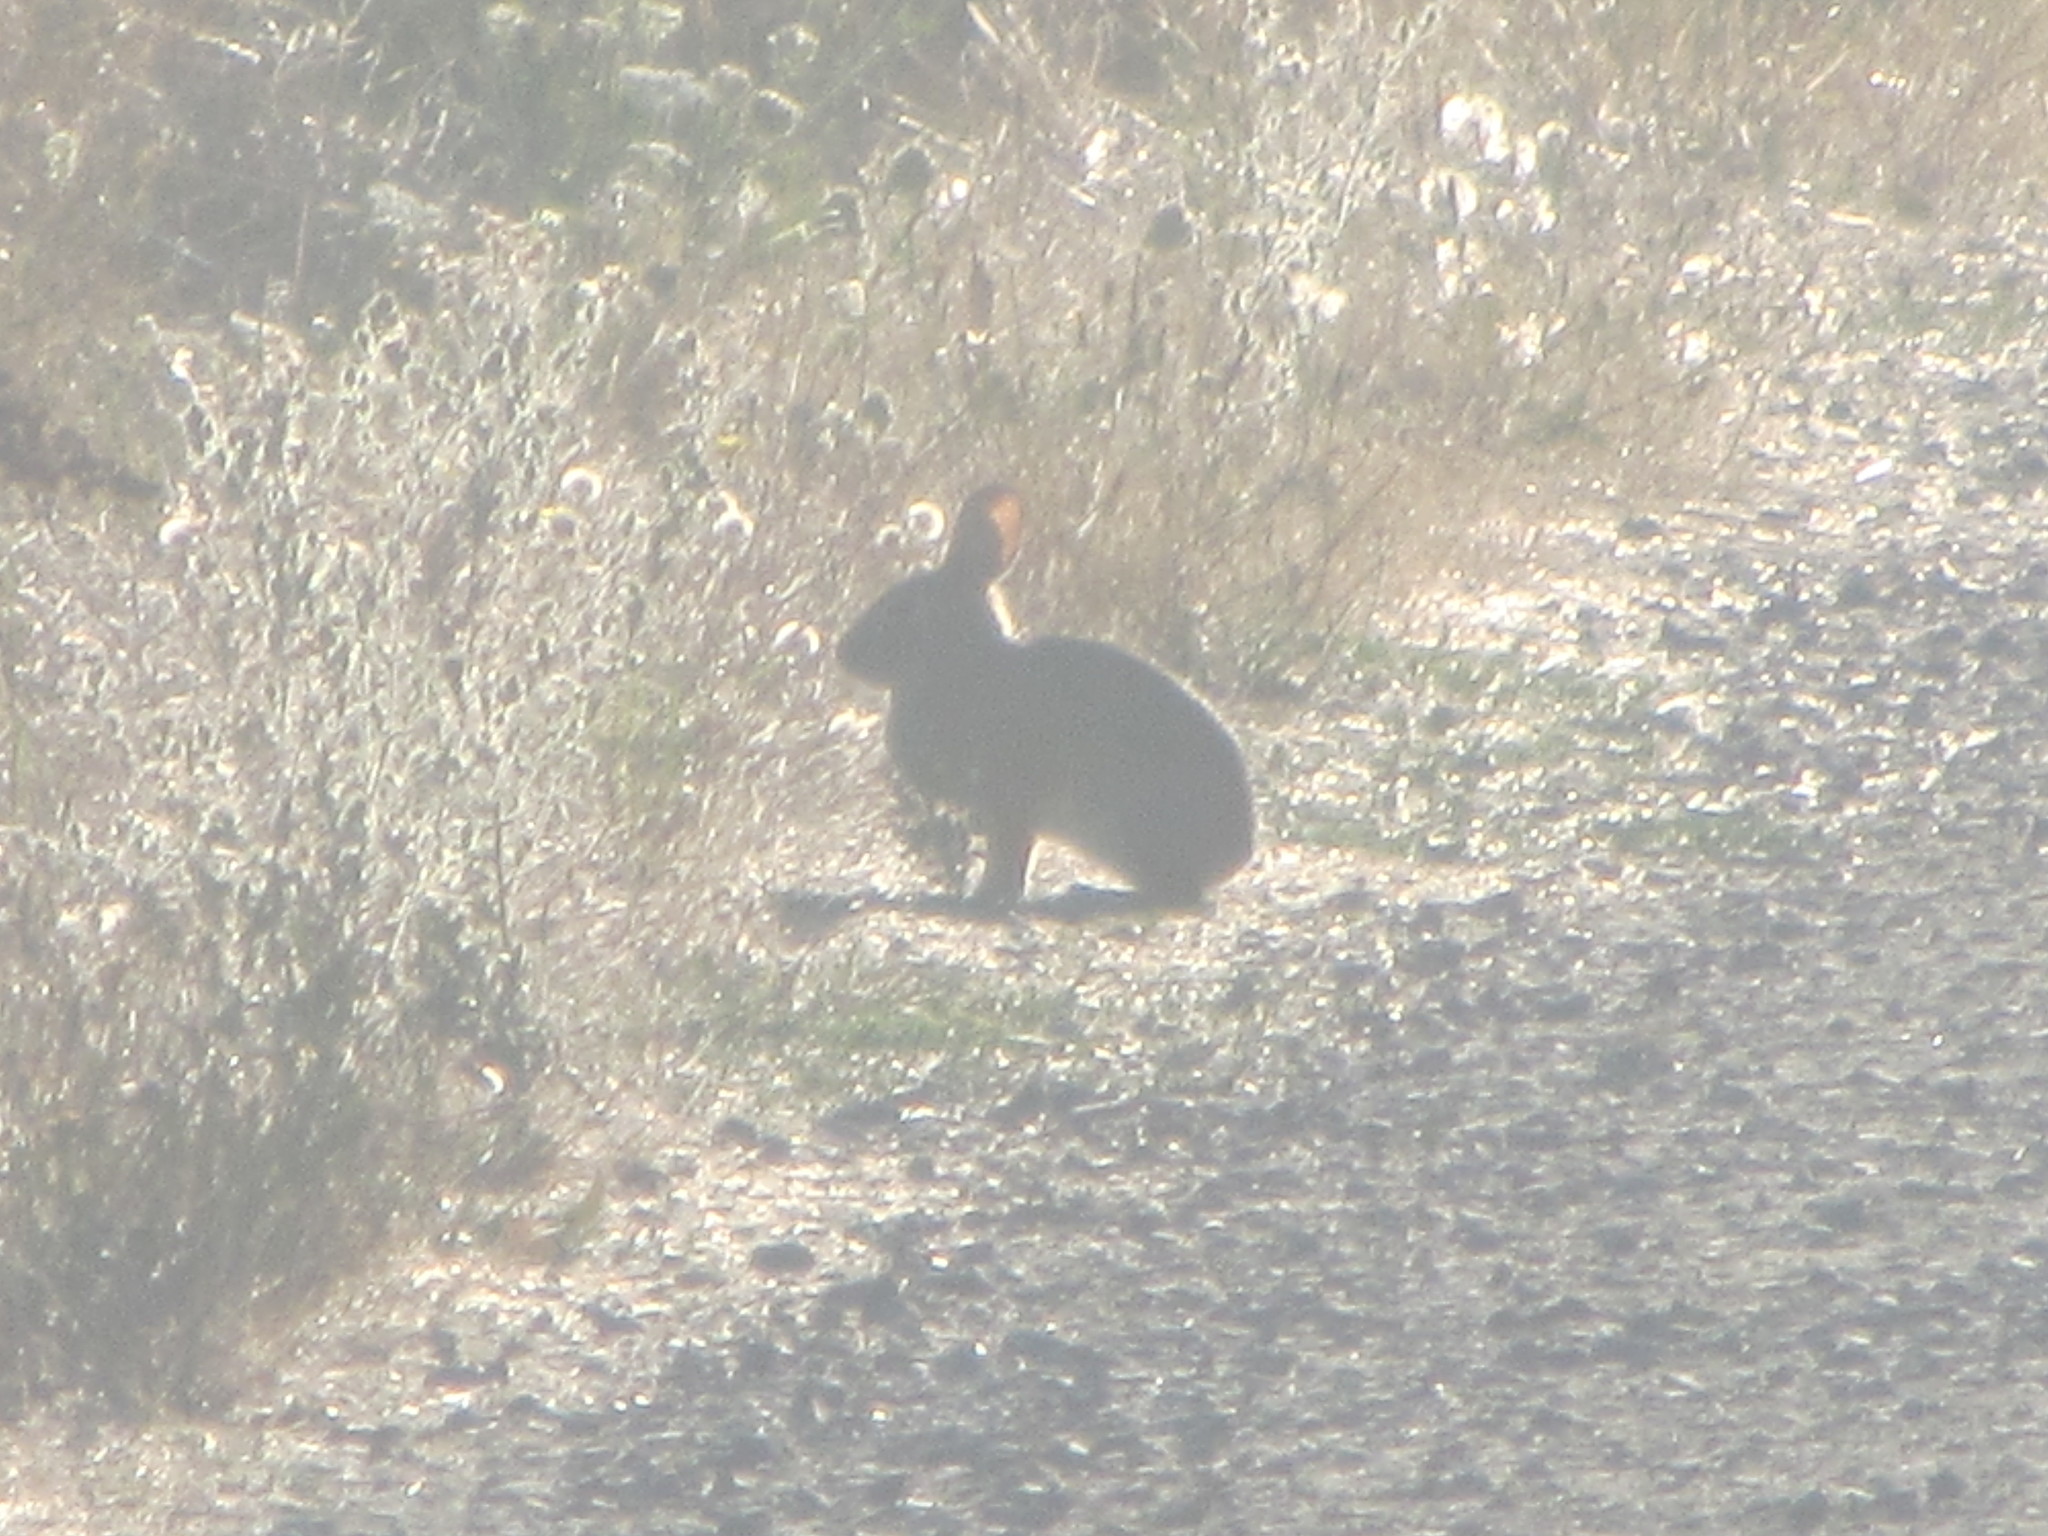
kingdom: Animalia
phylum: Chordata
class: Mammalia
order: Lagomorpha
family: Leporidae
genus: Sylvilagus
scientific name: Sylvilagus bachmani
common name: Brush rabbit
